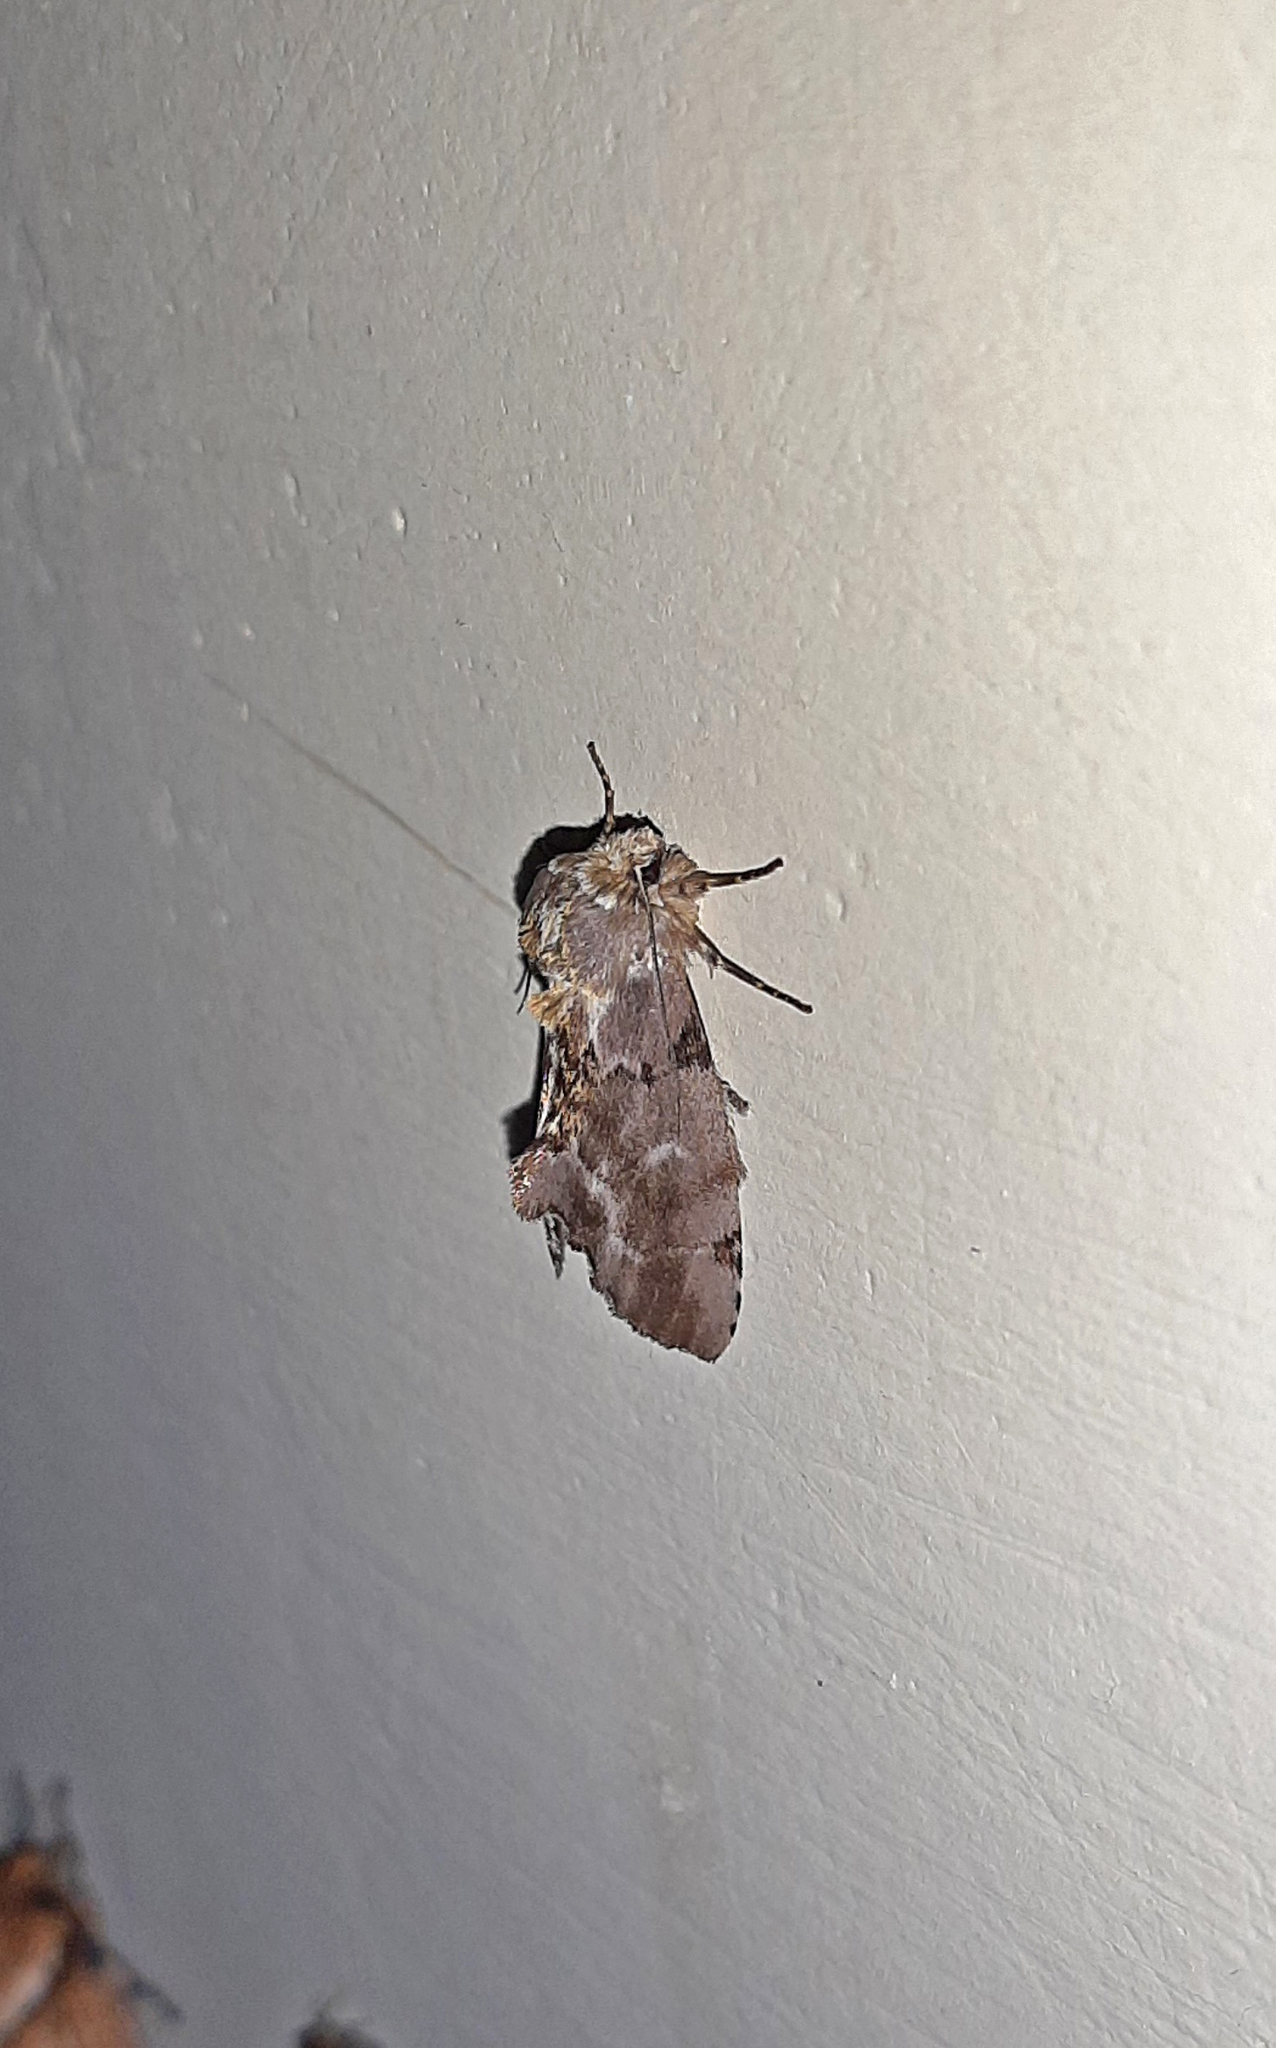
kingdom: Animalia
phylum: Arthropoda
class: Insecta
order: Lepidoptera
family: Notodontidae
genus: Dognina
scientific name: Dognina veltini
